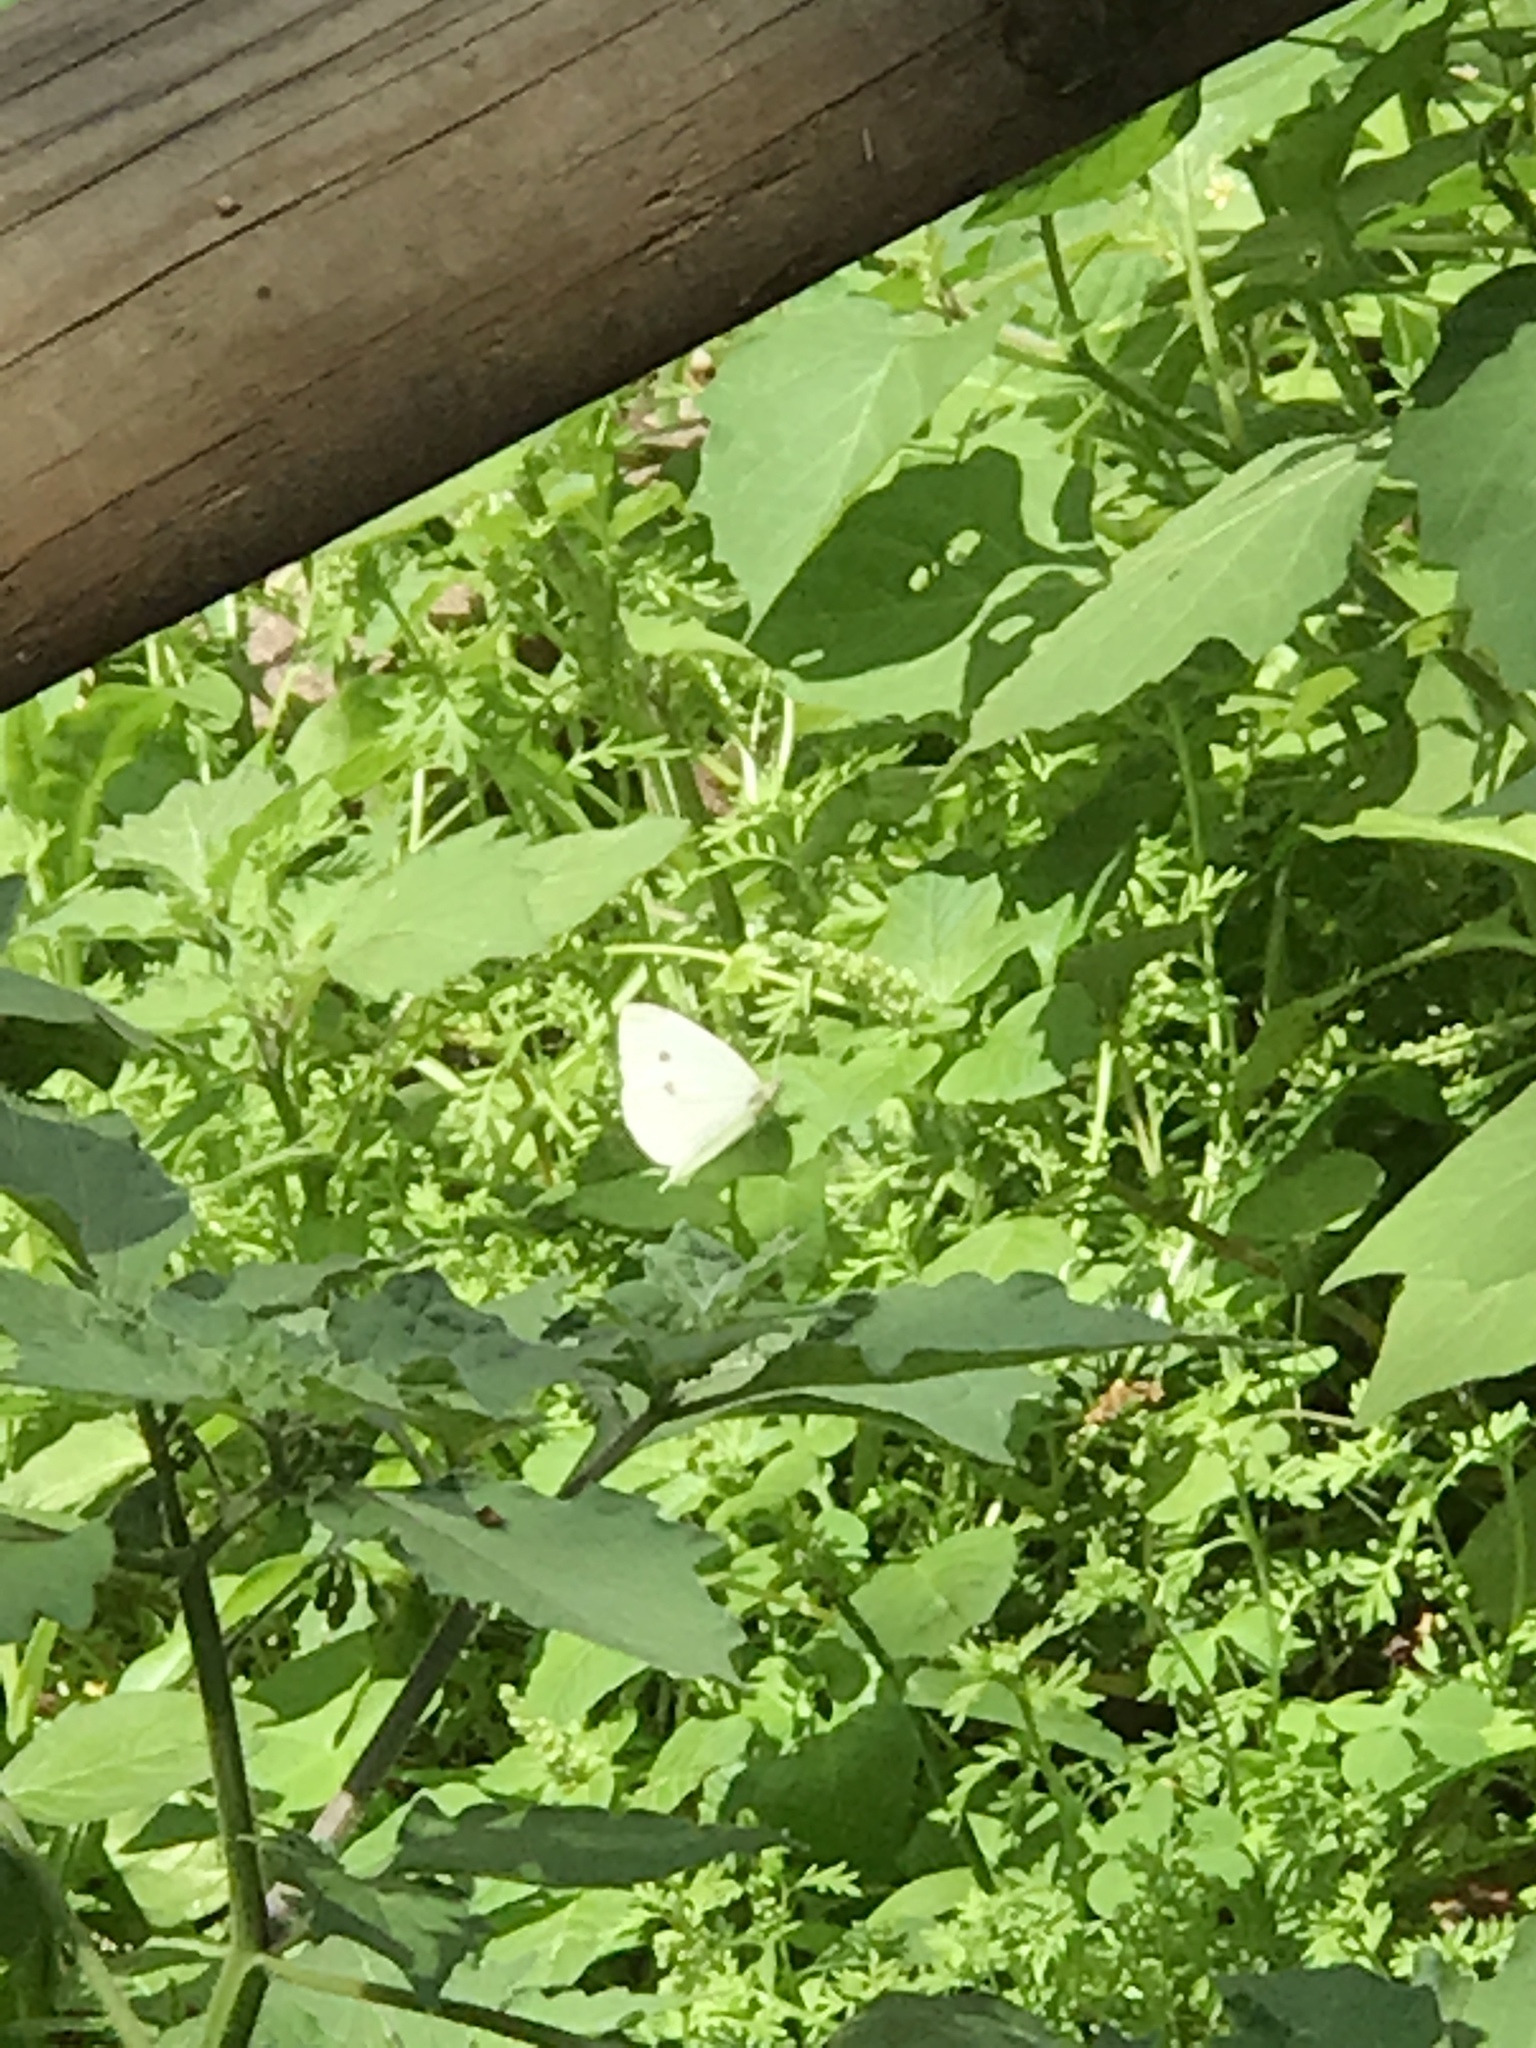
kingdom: Animalia
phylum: Arthropoda
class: Insecta
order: Lepidoptera
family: Pieridae
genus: Pieris
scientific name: Pieris rapae
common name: Small white
